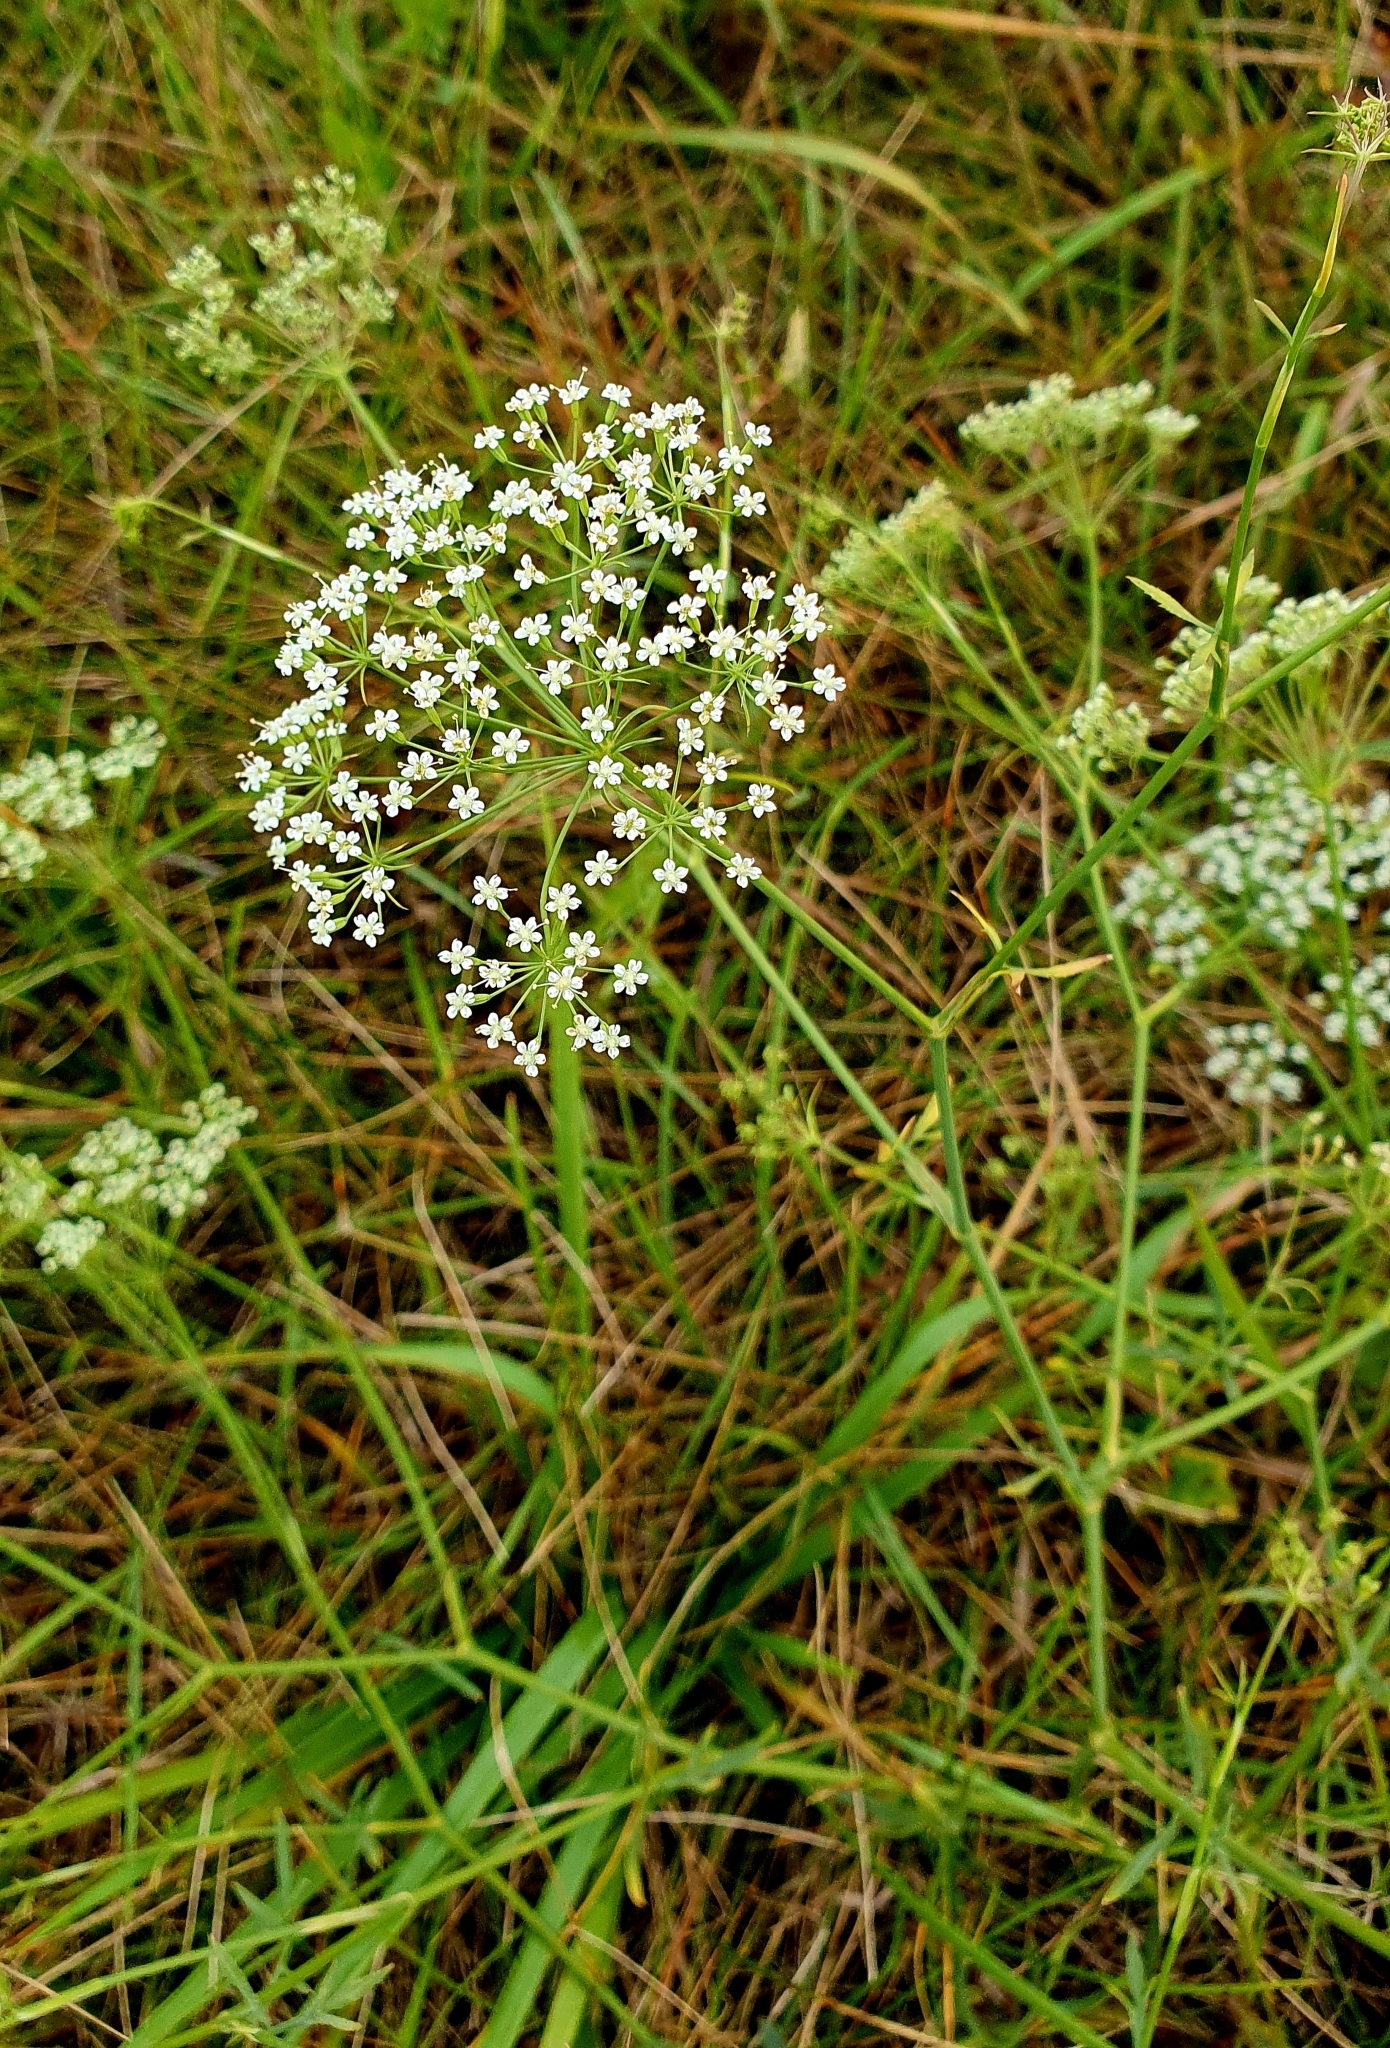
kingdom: Plantae
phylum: Tracheophyta
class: Magnoliopsida
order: Apiales
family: Apiaceae
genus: Falcaria
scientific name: Falcaria vulgaris
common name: Longleaf
